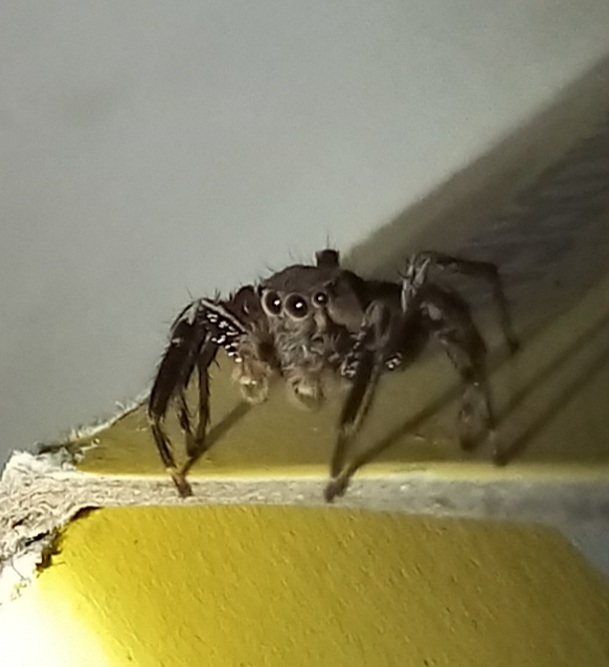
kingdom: Animalia
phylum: Arthropoda
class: Arachnida
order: Araneae
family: Salticidae
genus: Plexippus
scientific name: Plexippus petersi
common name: Jumping spider
